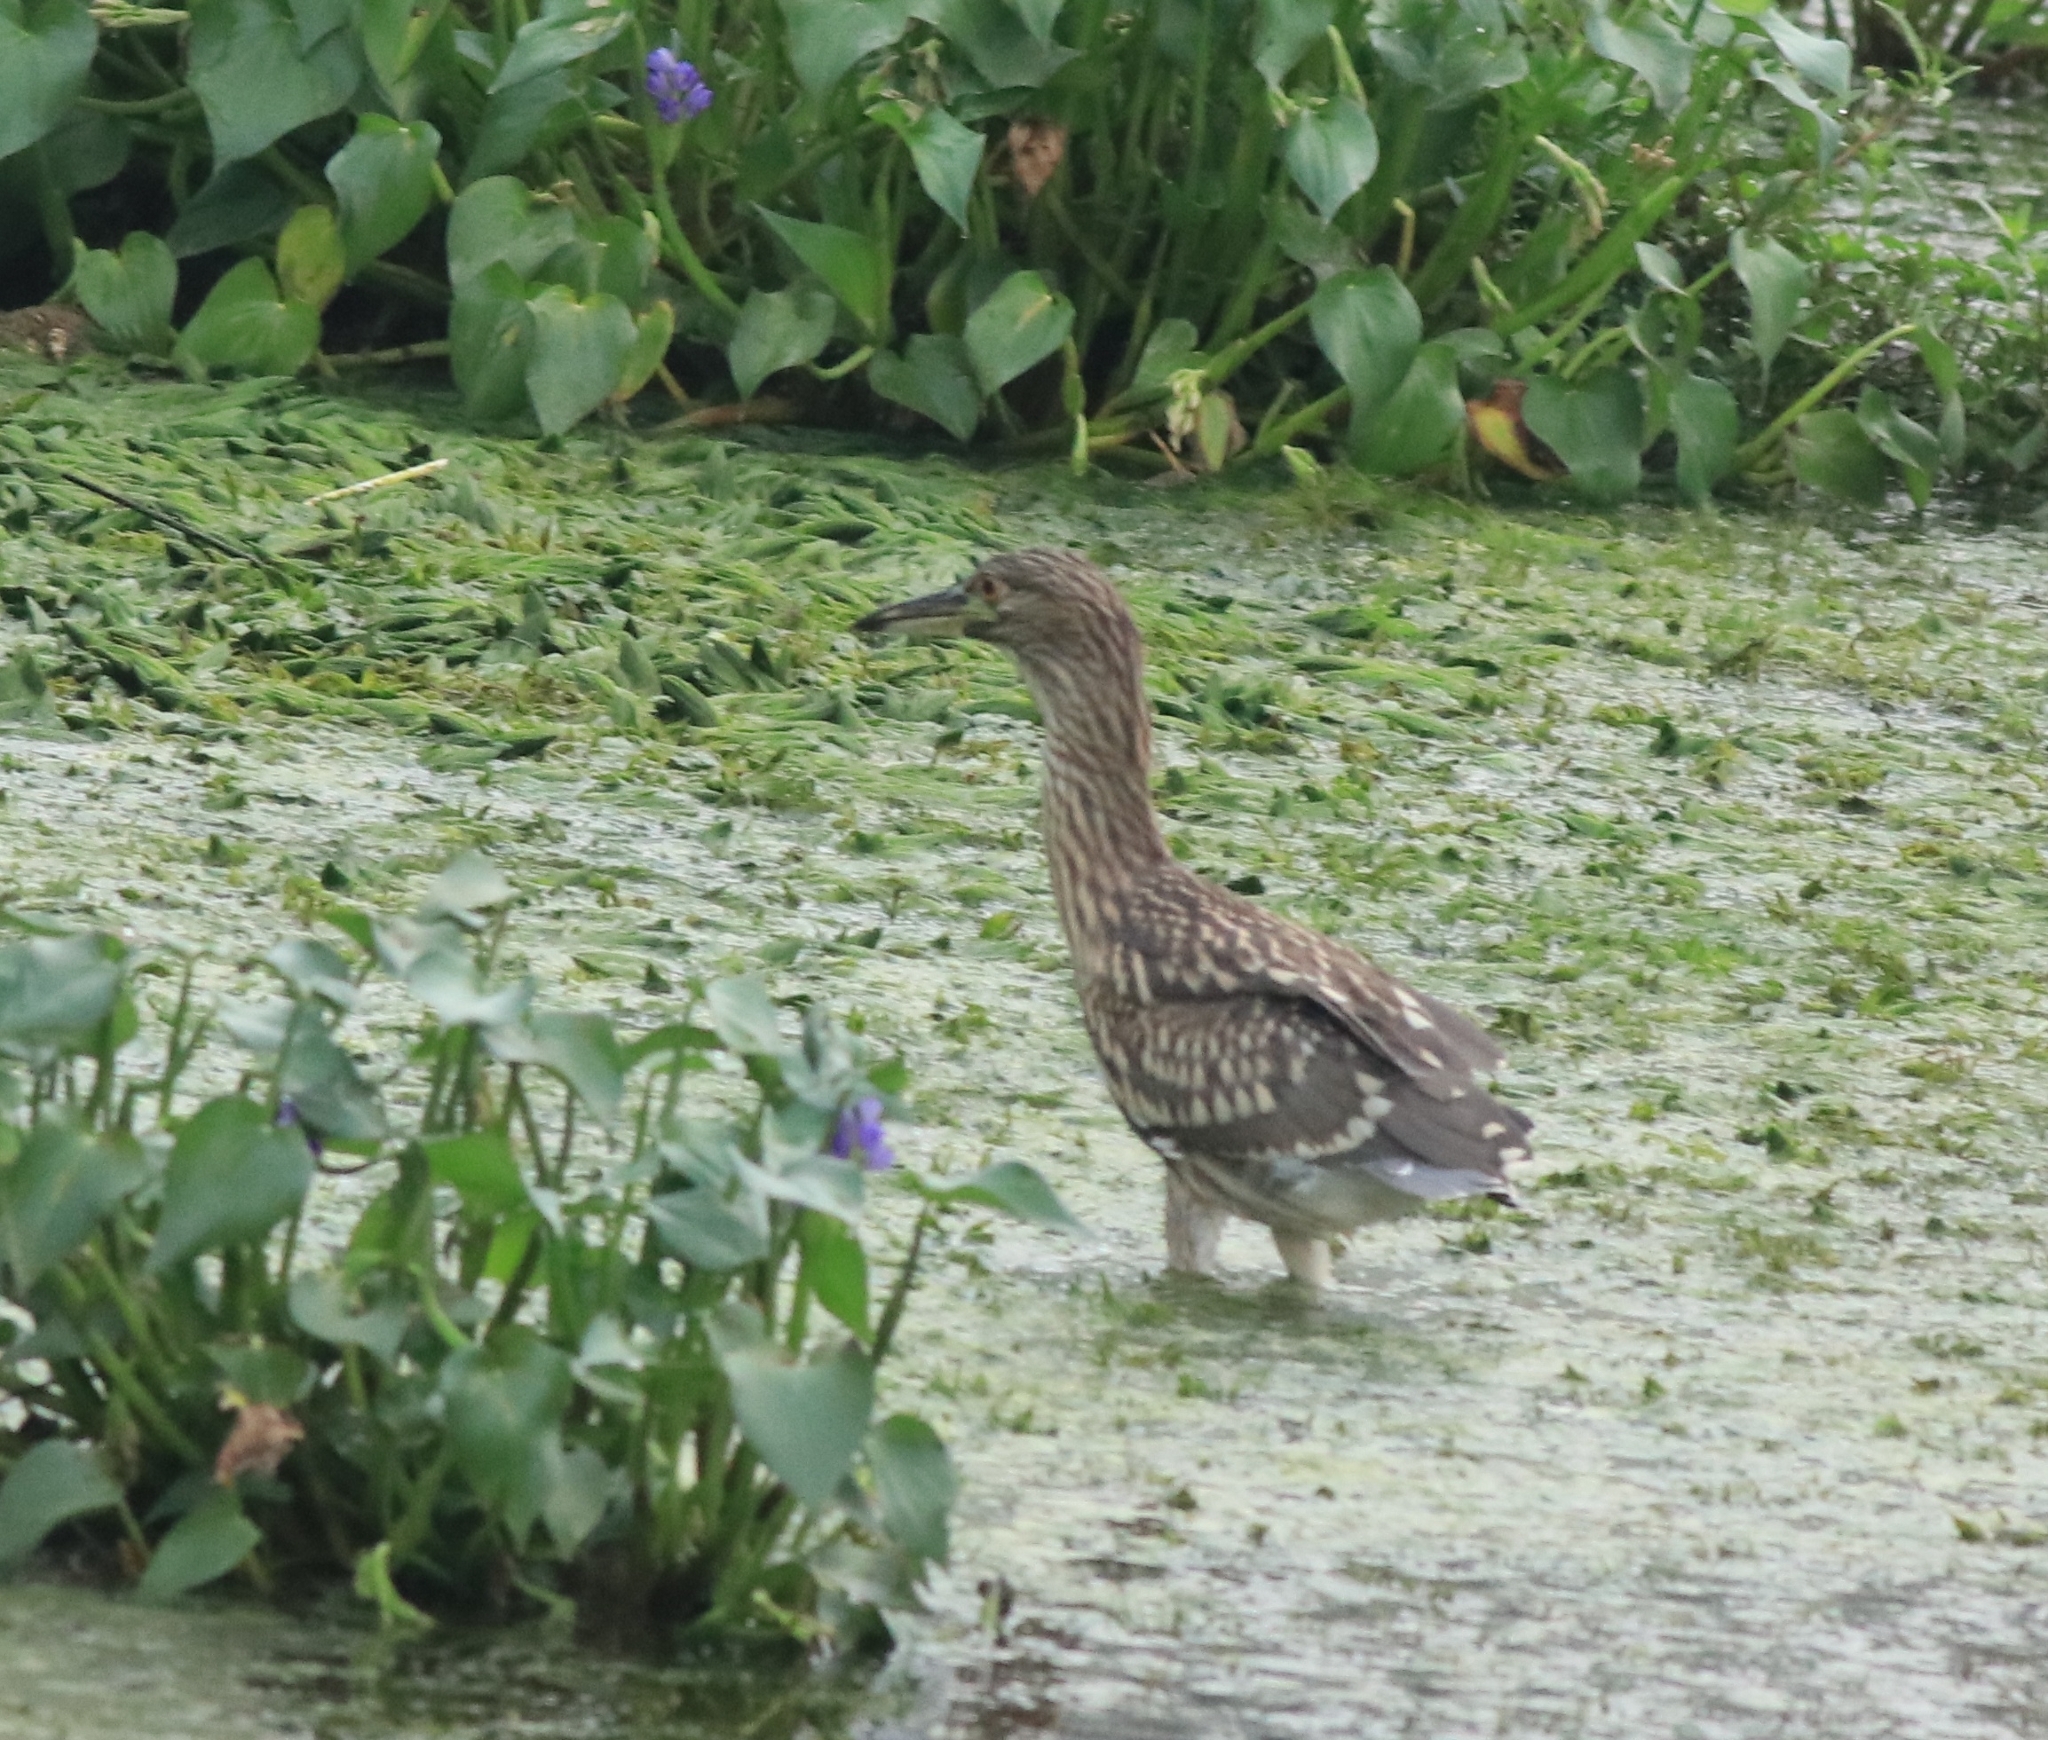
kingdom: Animalia
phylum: Chordata
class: Aves
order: Pelecaniformes
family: Ardeidae
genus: Nycticorax
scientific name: Nycticorax nycticorax
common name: Black-crowned night heron
